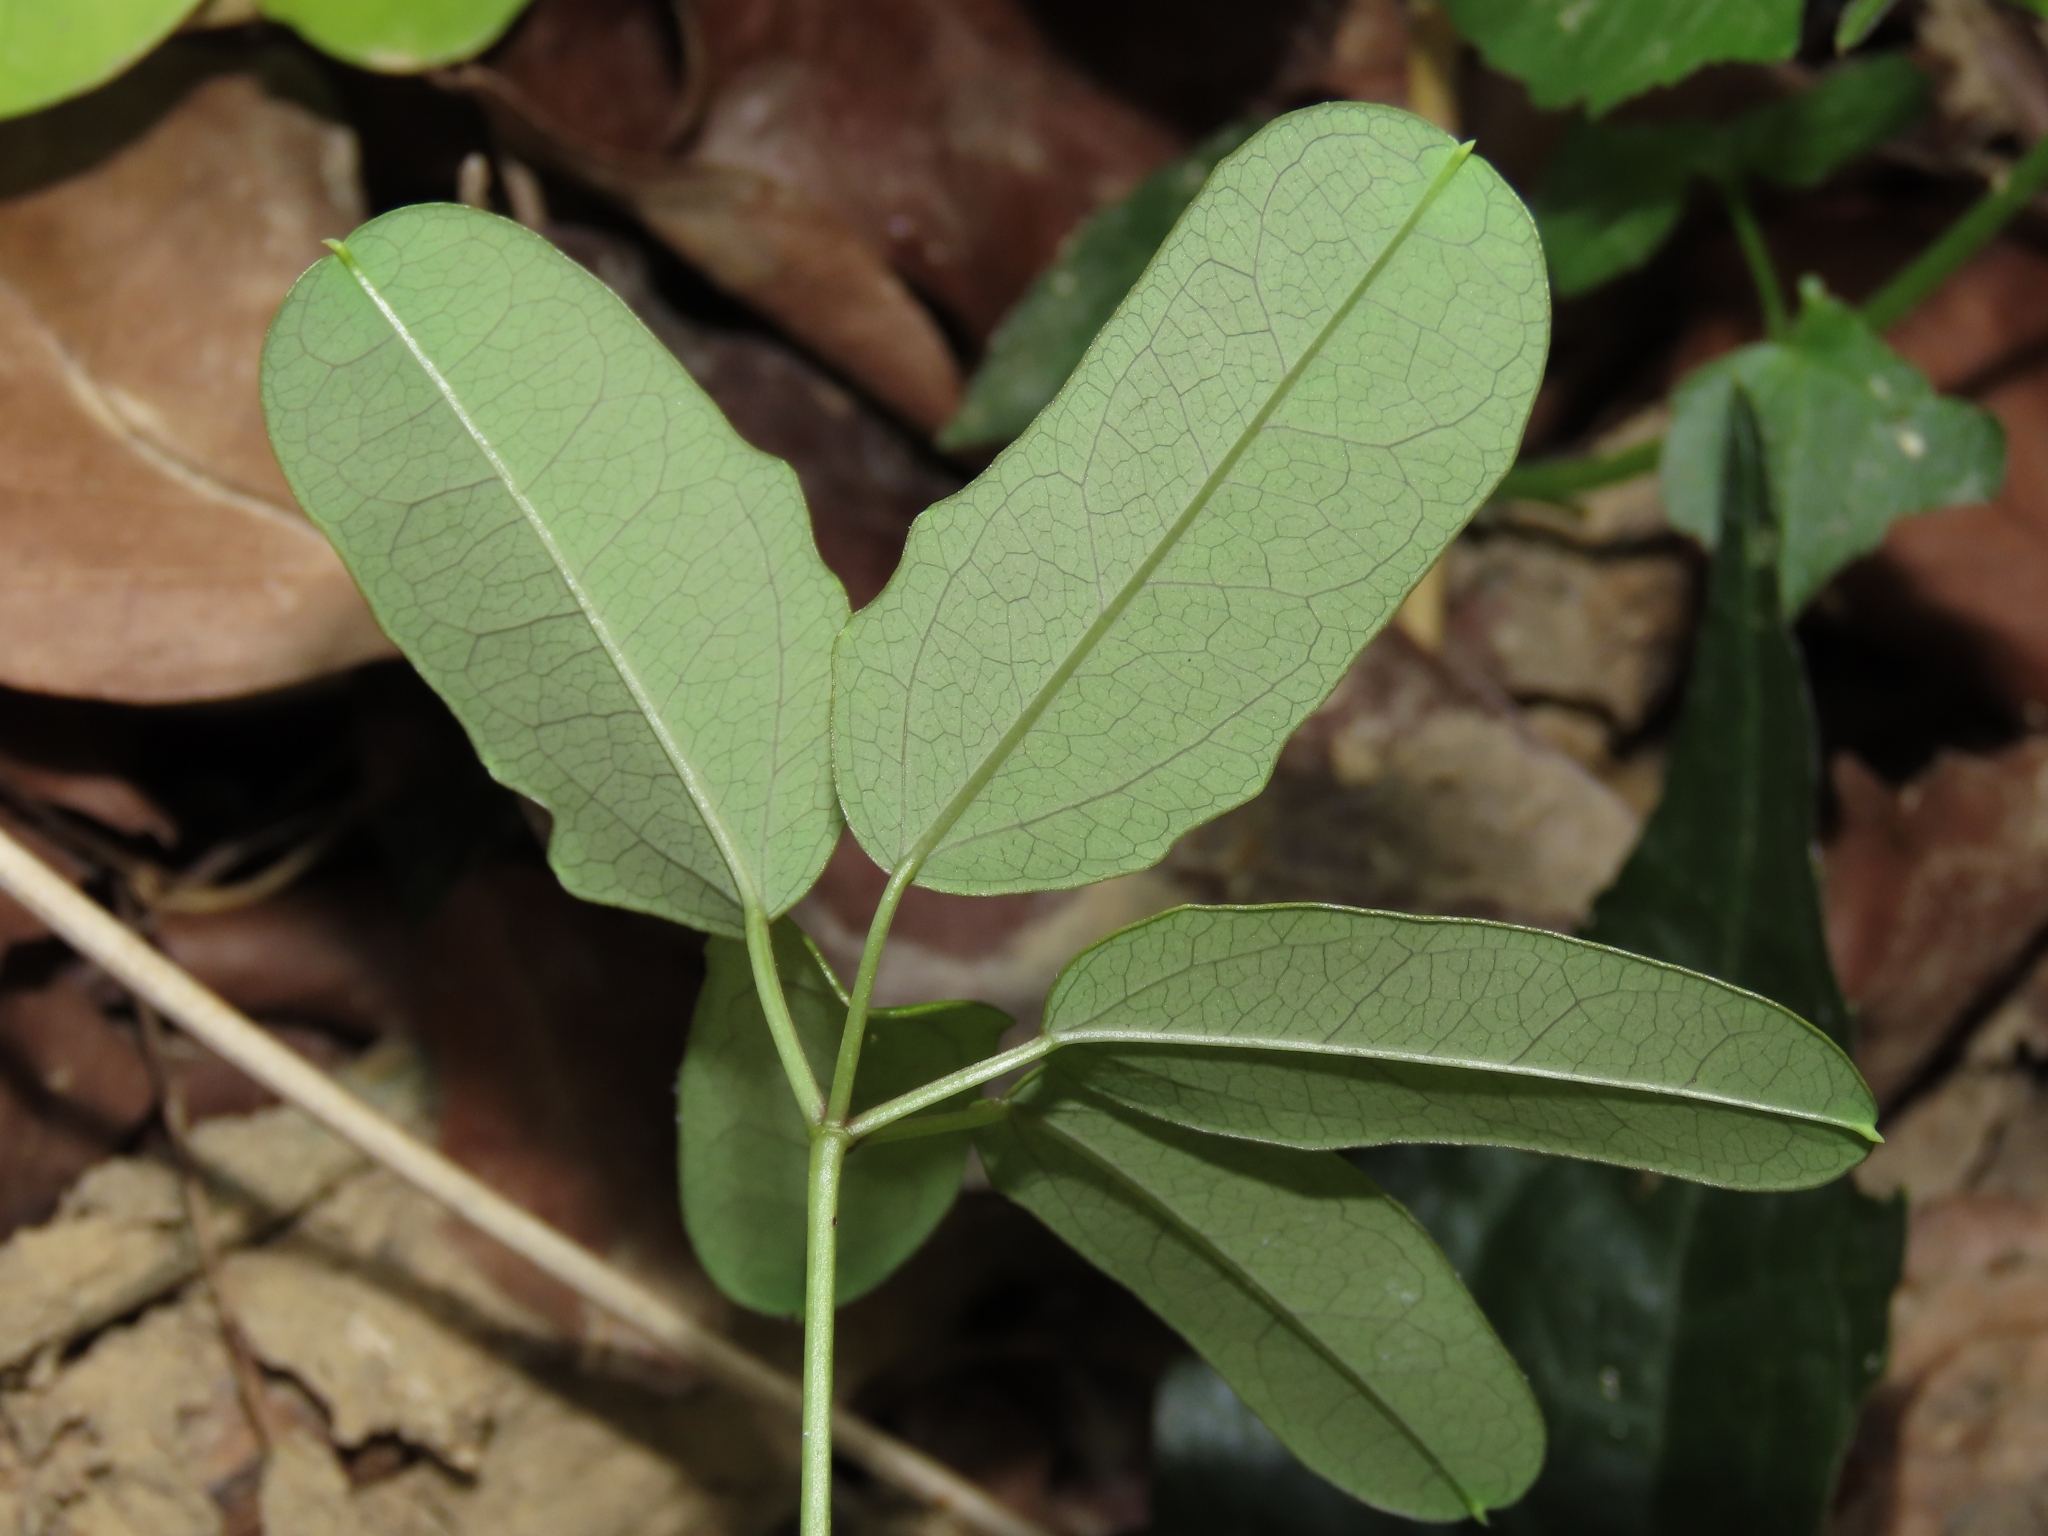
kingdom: Plantae
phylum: Tracheophyta
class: Magnoliopsida
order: Ranunculales
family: Lardizabalaceae
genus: Akebia
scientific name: Akebia longeracemosa
